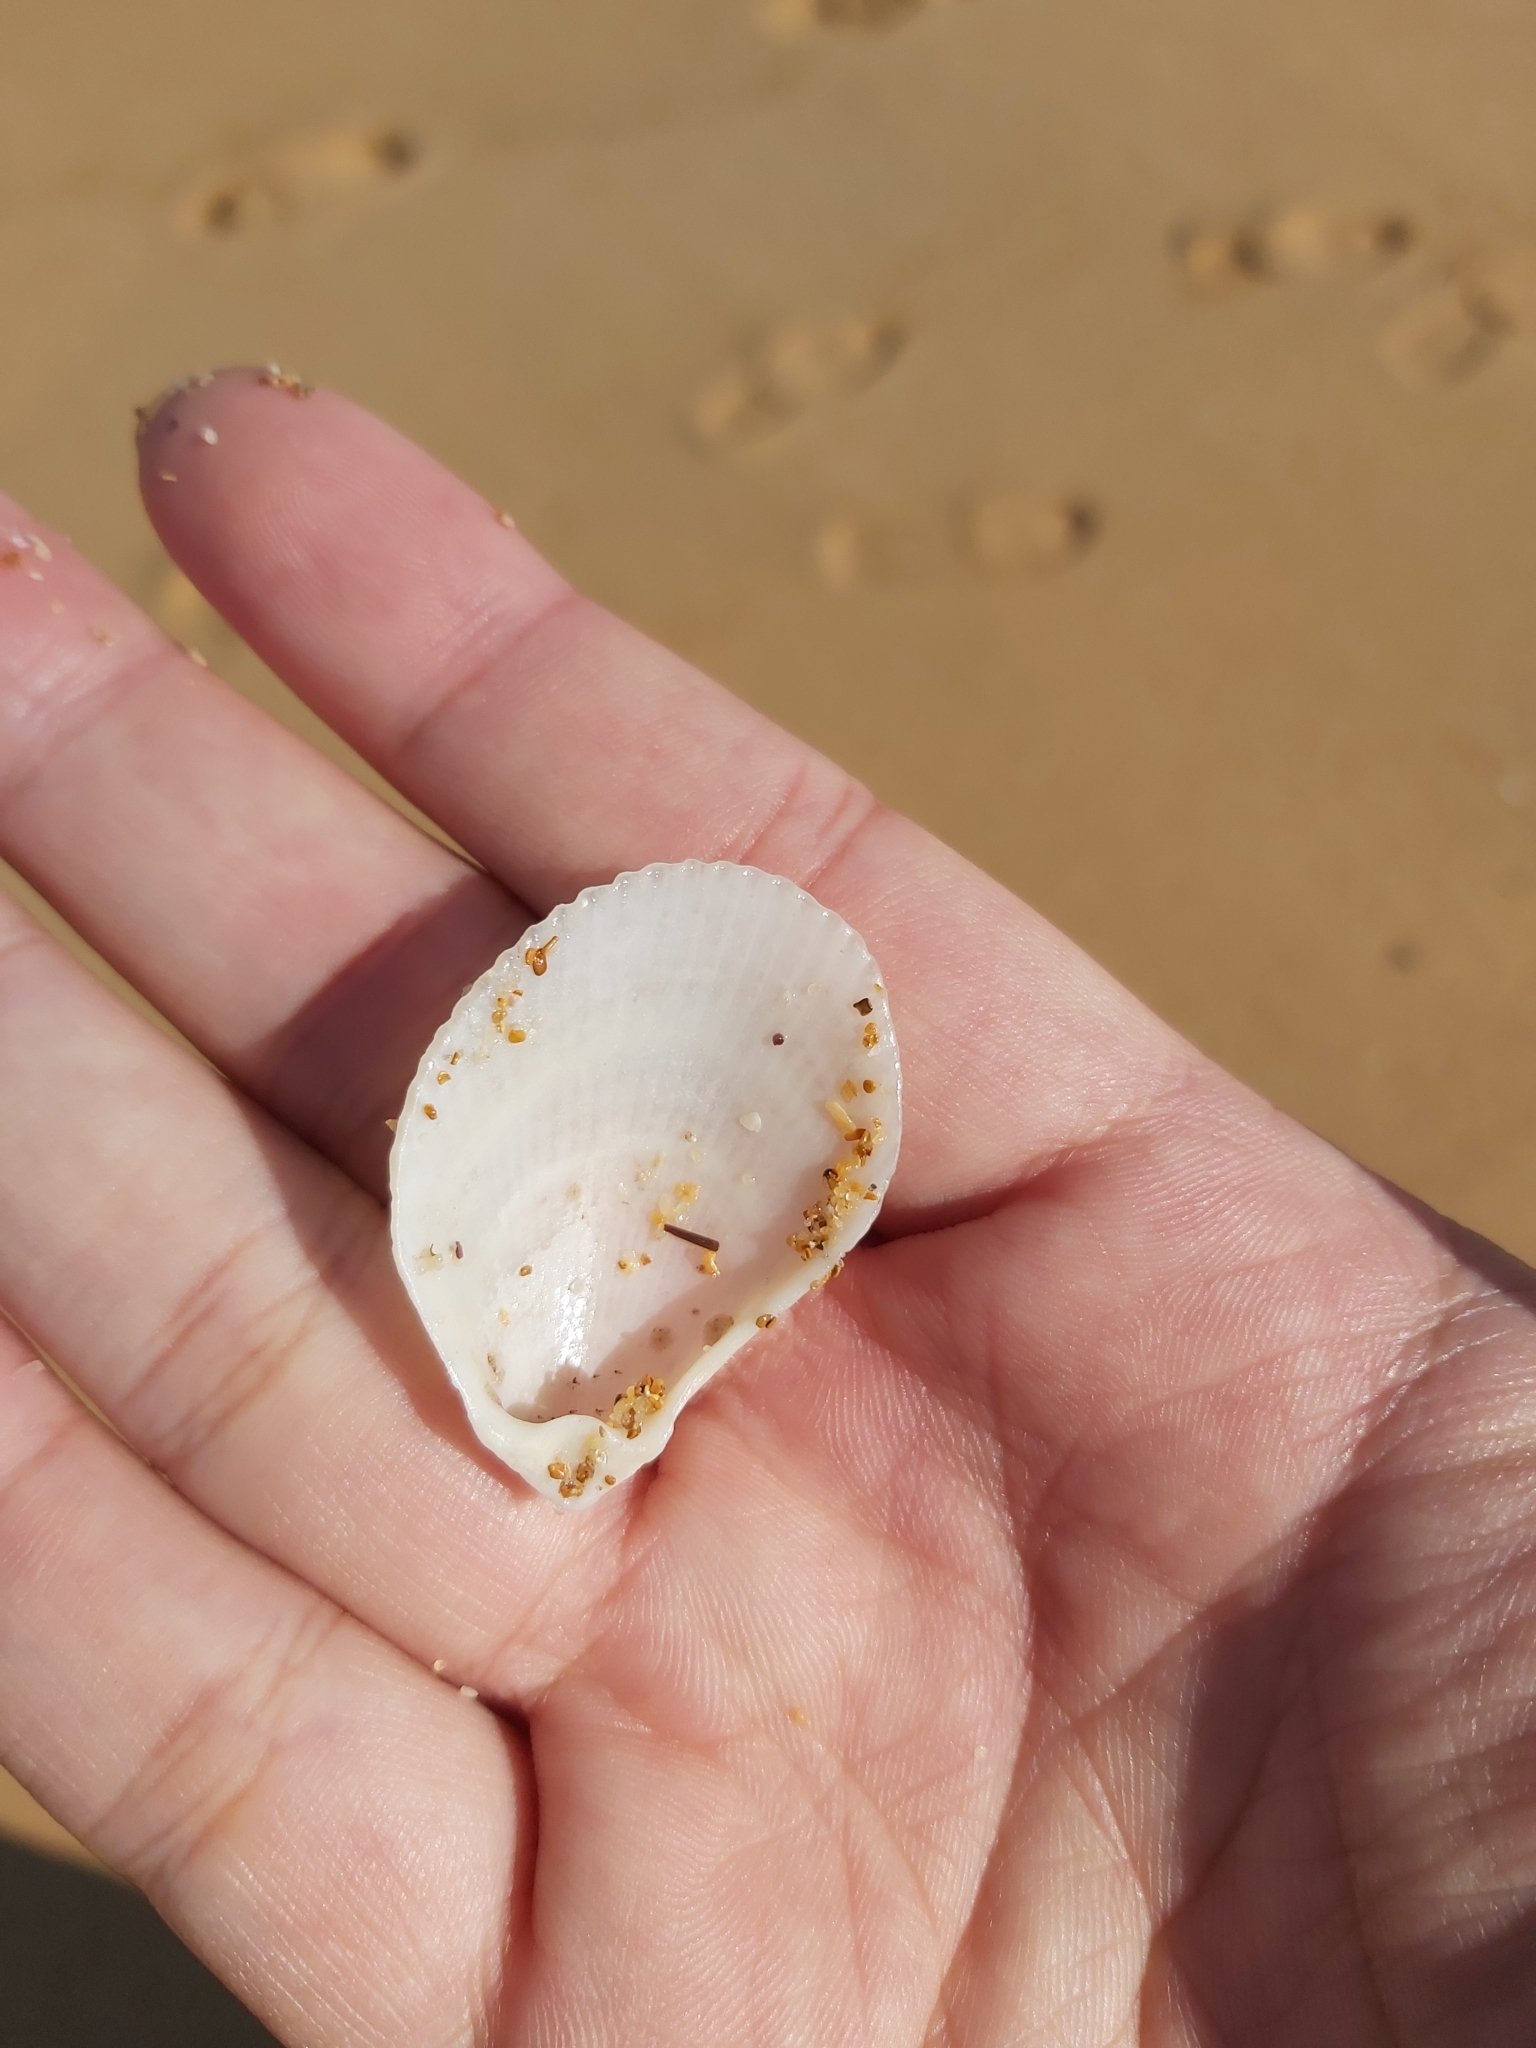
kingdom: Animalia
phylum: Mollusca
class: Bivalvia
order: Limida
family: Limidae
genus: Lima
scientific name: Lima nimbifer
